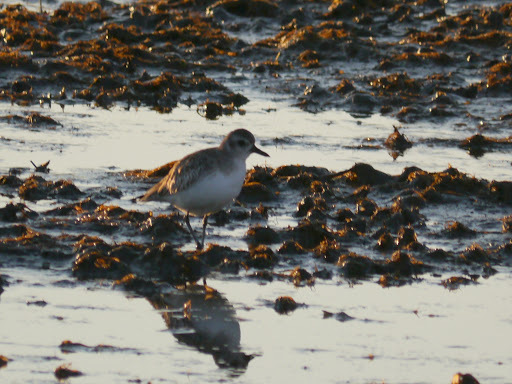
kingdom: Animalia
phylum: Chordata
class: Aves
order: Charadriiformes
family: Charadriidae
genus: Pluvialis
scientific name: Pluvialis squatarola
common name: Grey plover
